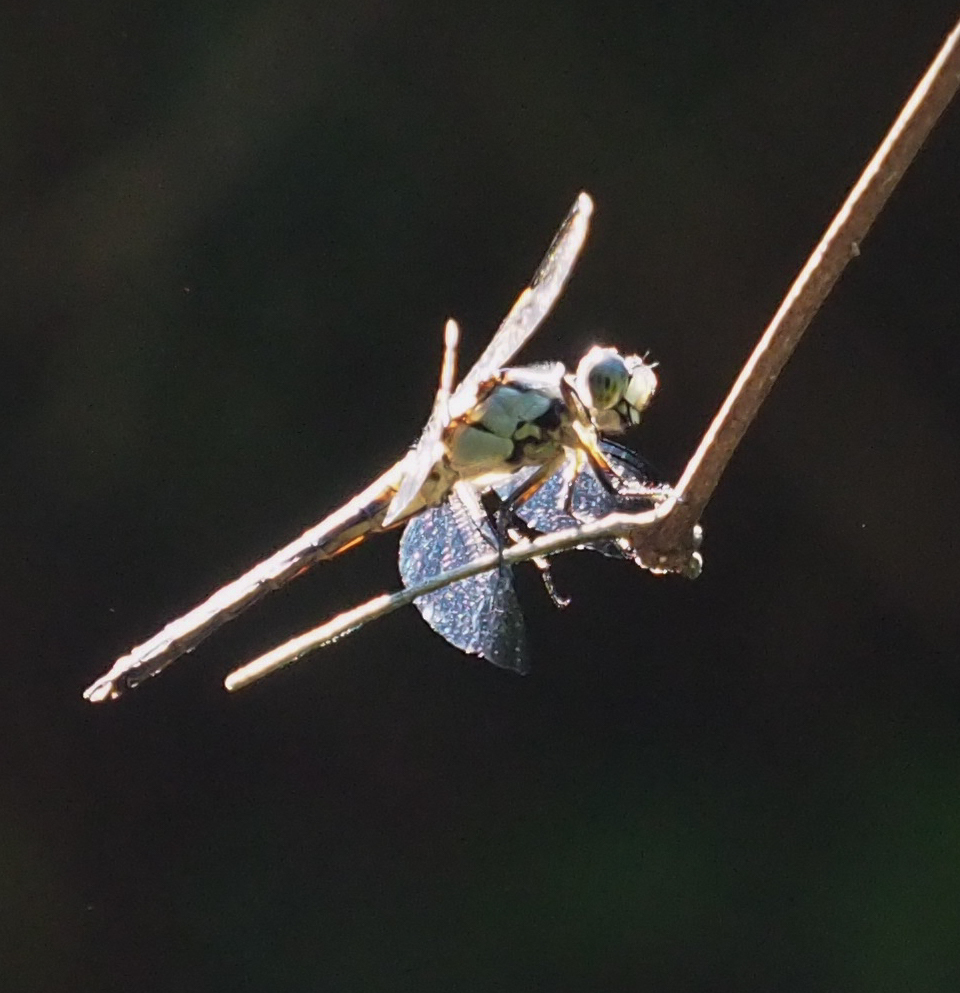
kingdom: Animalia
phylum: Arthropoda
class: Insecta
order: Odonata
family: Libellulidae
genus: Libellula
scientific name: Libellula vibrans
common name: Great blue skimmer
